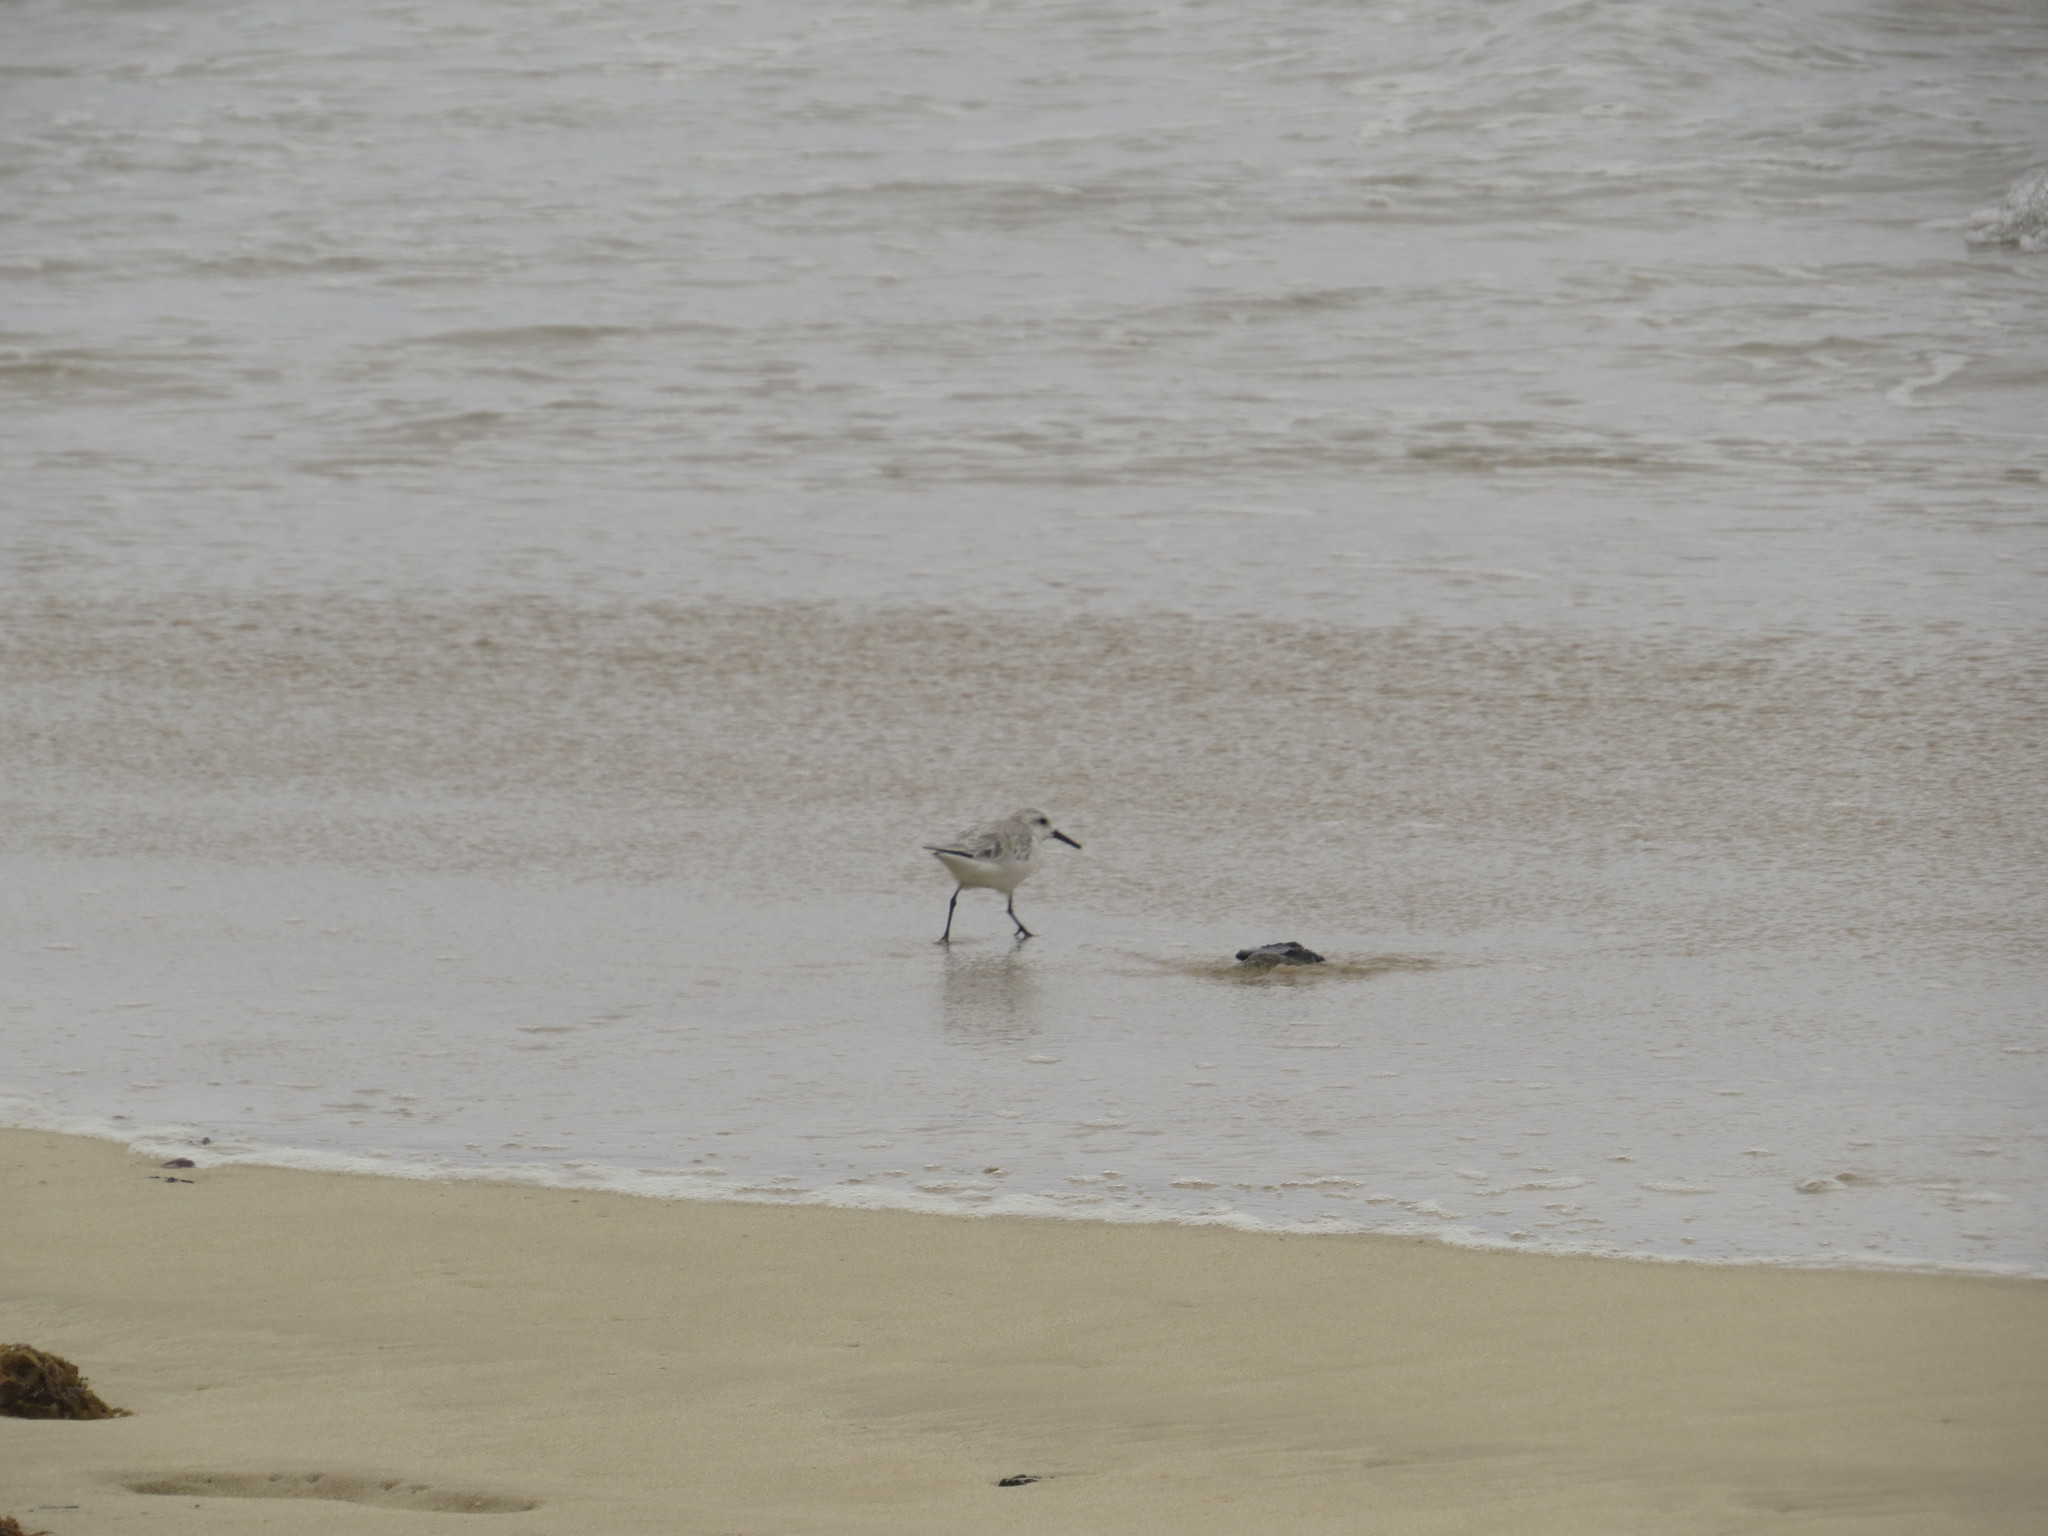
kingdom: Animalia
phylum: Chordata
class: Aves
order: Charadriiformes
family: Scolopacidae
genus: Calidris
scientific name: Calidris alba
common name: Sanderling
